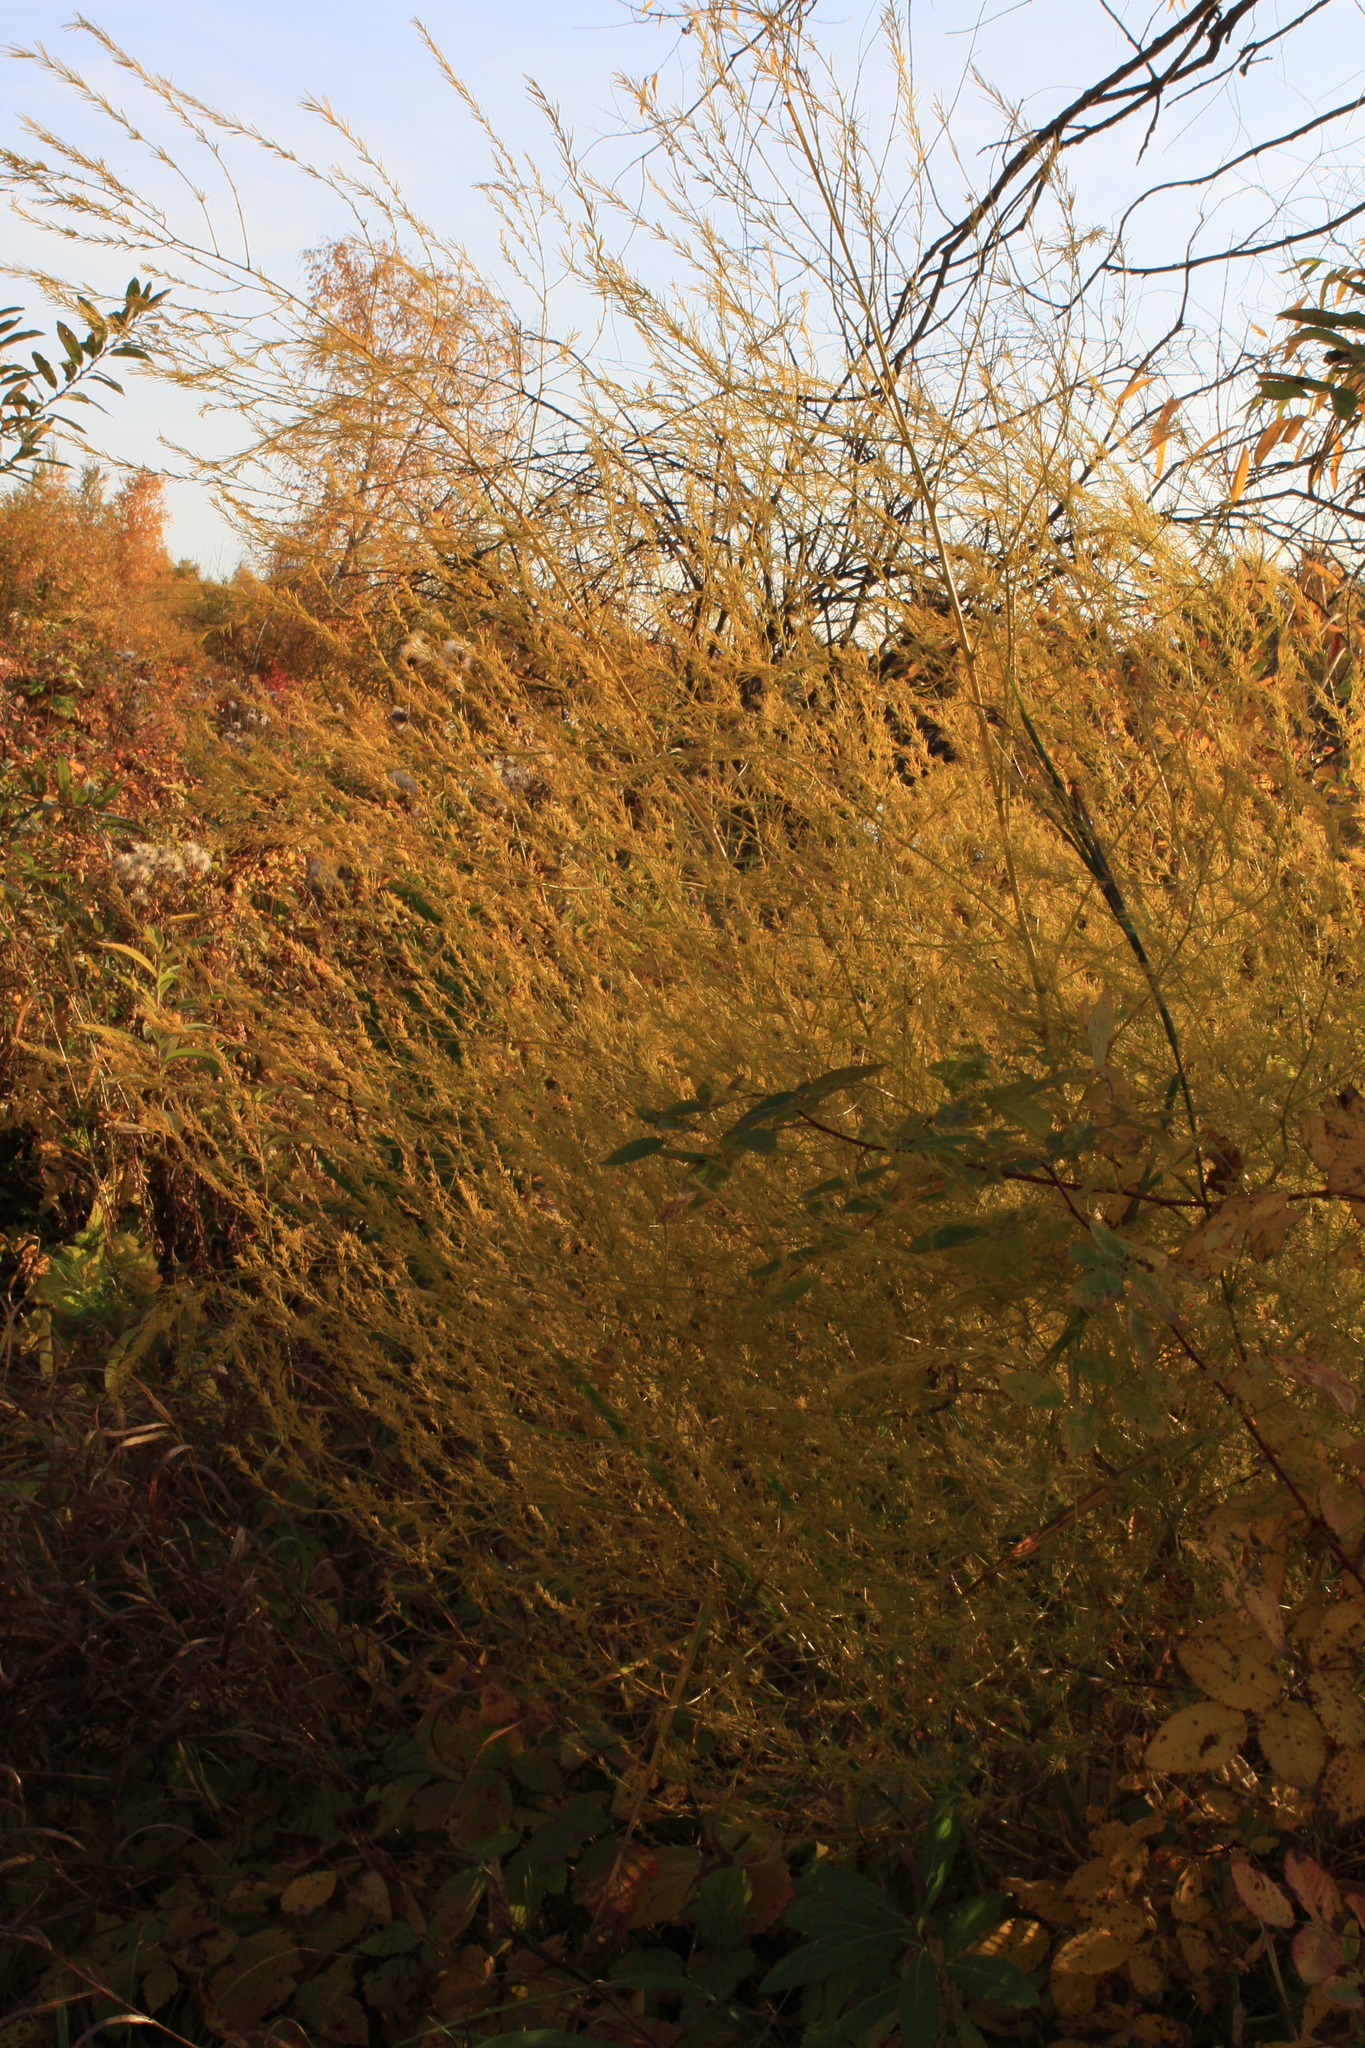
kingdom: Plantae
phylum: Tracheophyta
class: Liliopsida
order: Asparagales
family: Asparagaceae
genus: Asparagus
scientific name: Asparagus officinalis
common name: Garden asparagus
